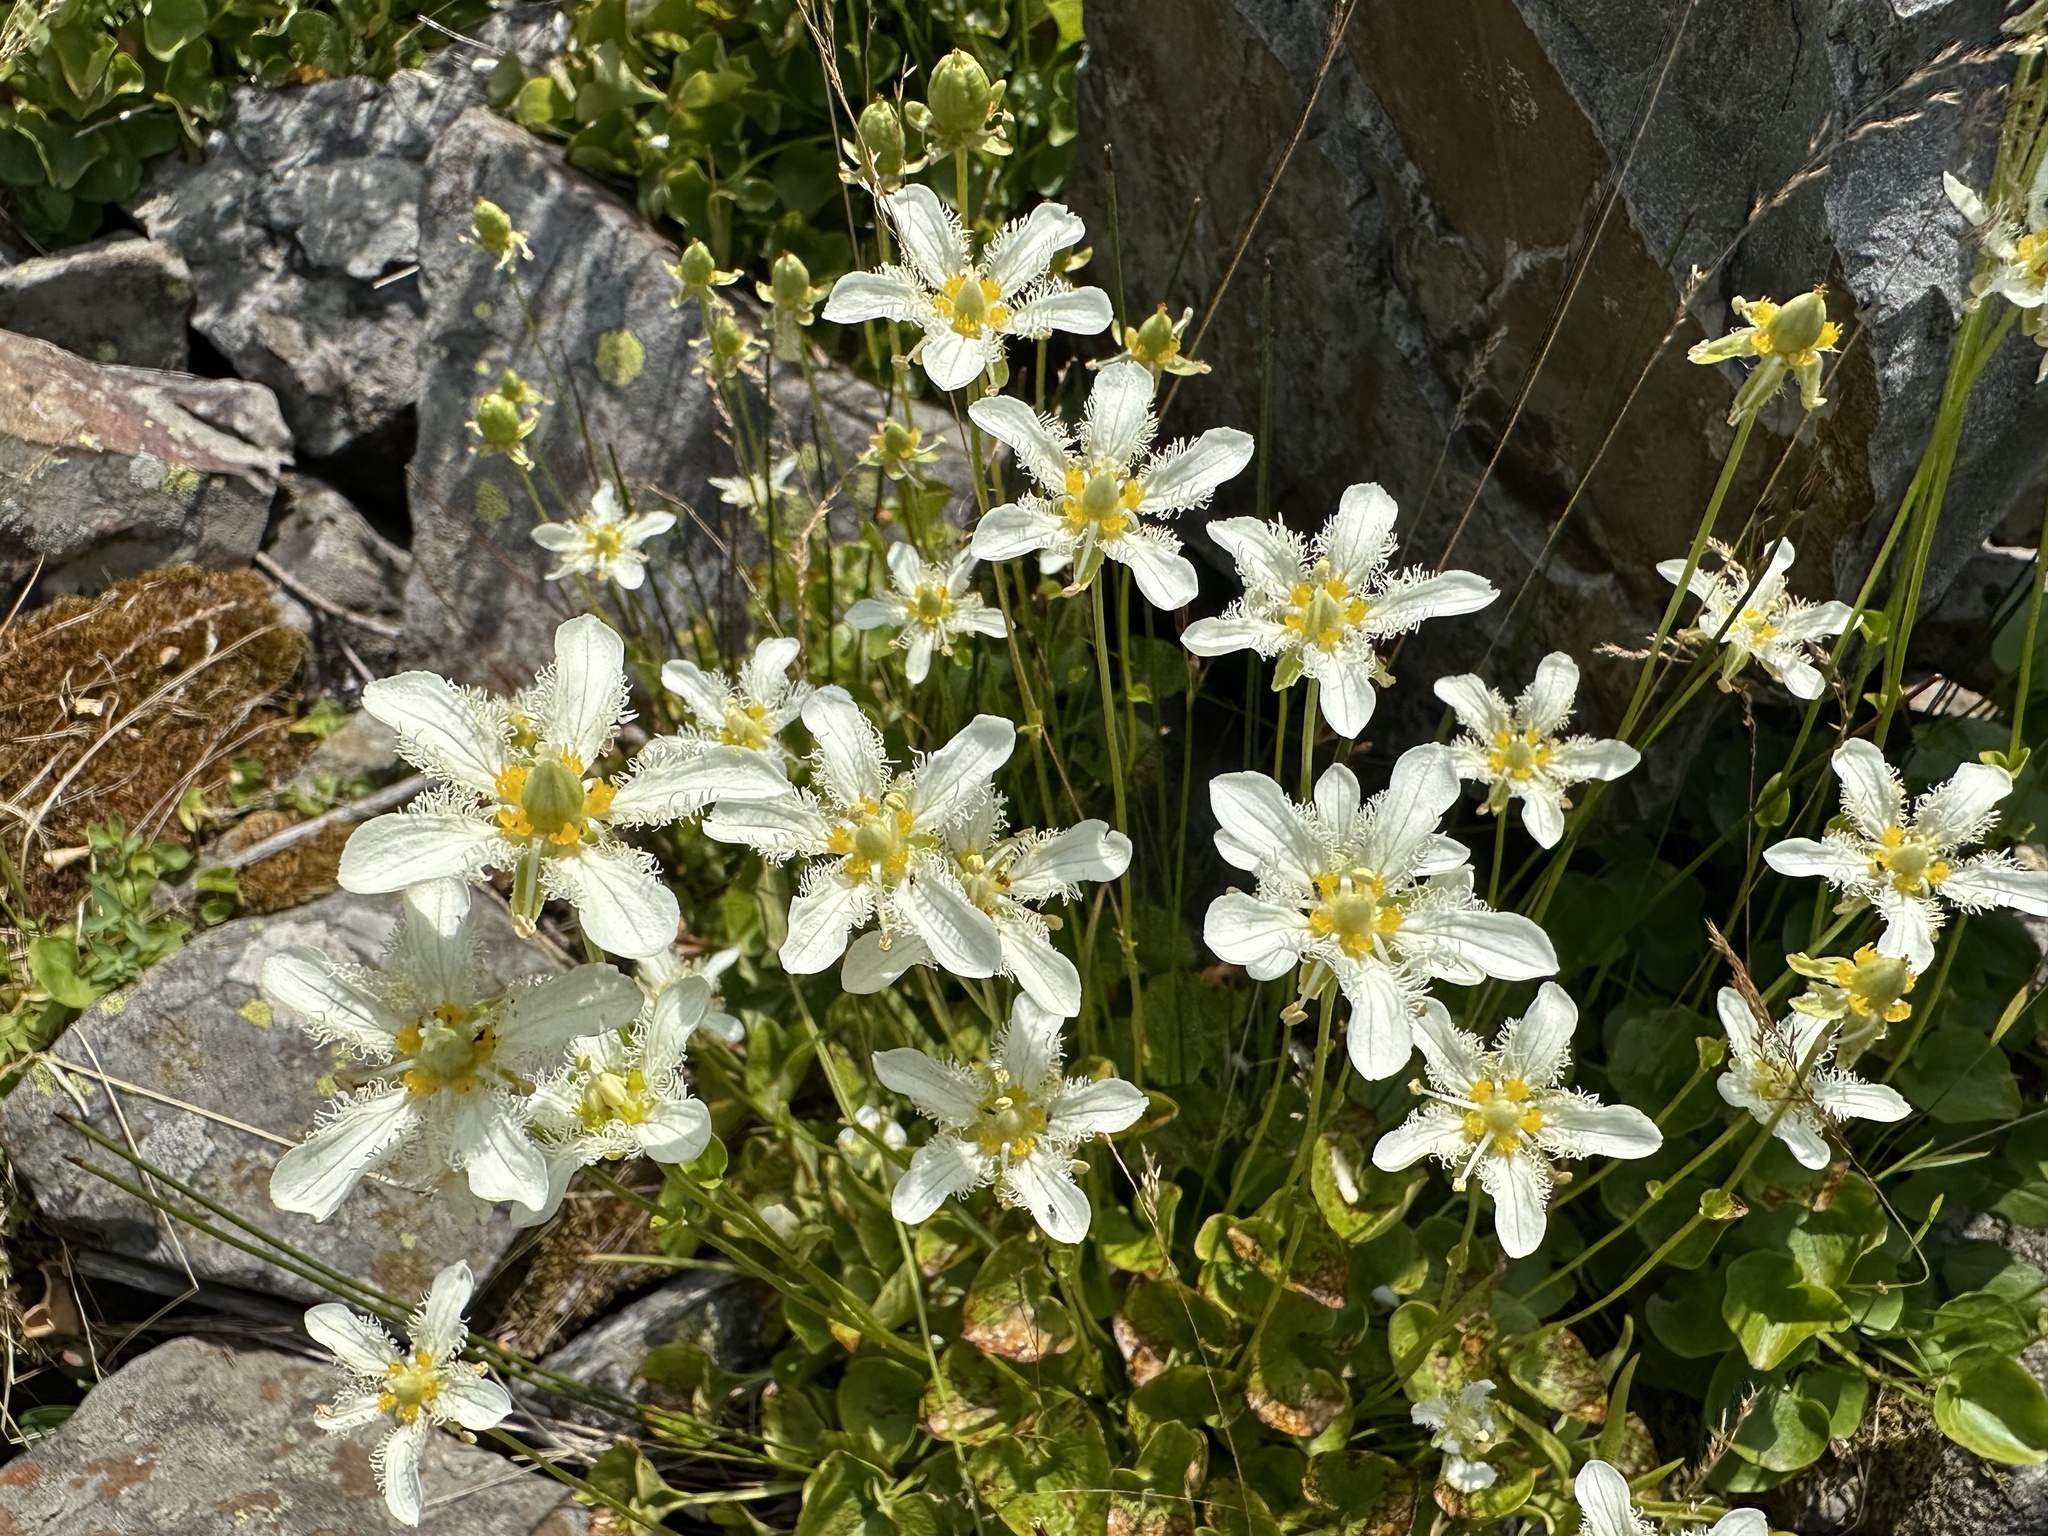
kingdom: Plantae
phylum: Tracheophyta
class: Magnoliopsida
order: Celastrales
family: Parnassiaceae
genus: Parnassia
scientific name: Parnassia fimbriata
